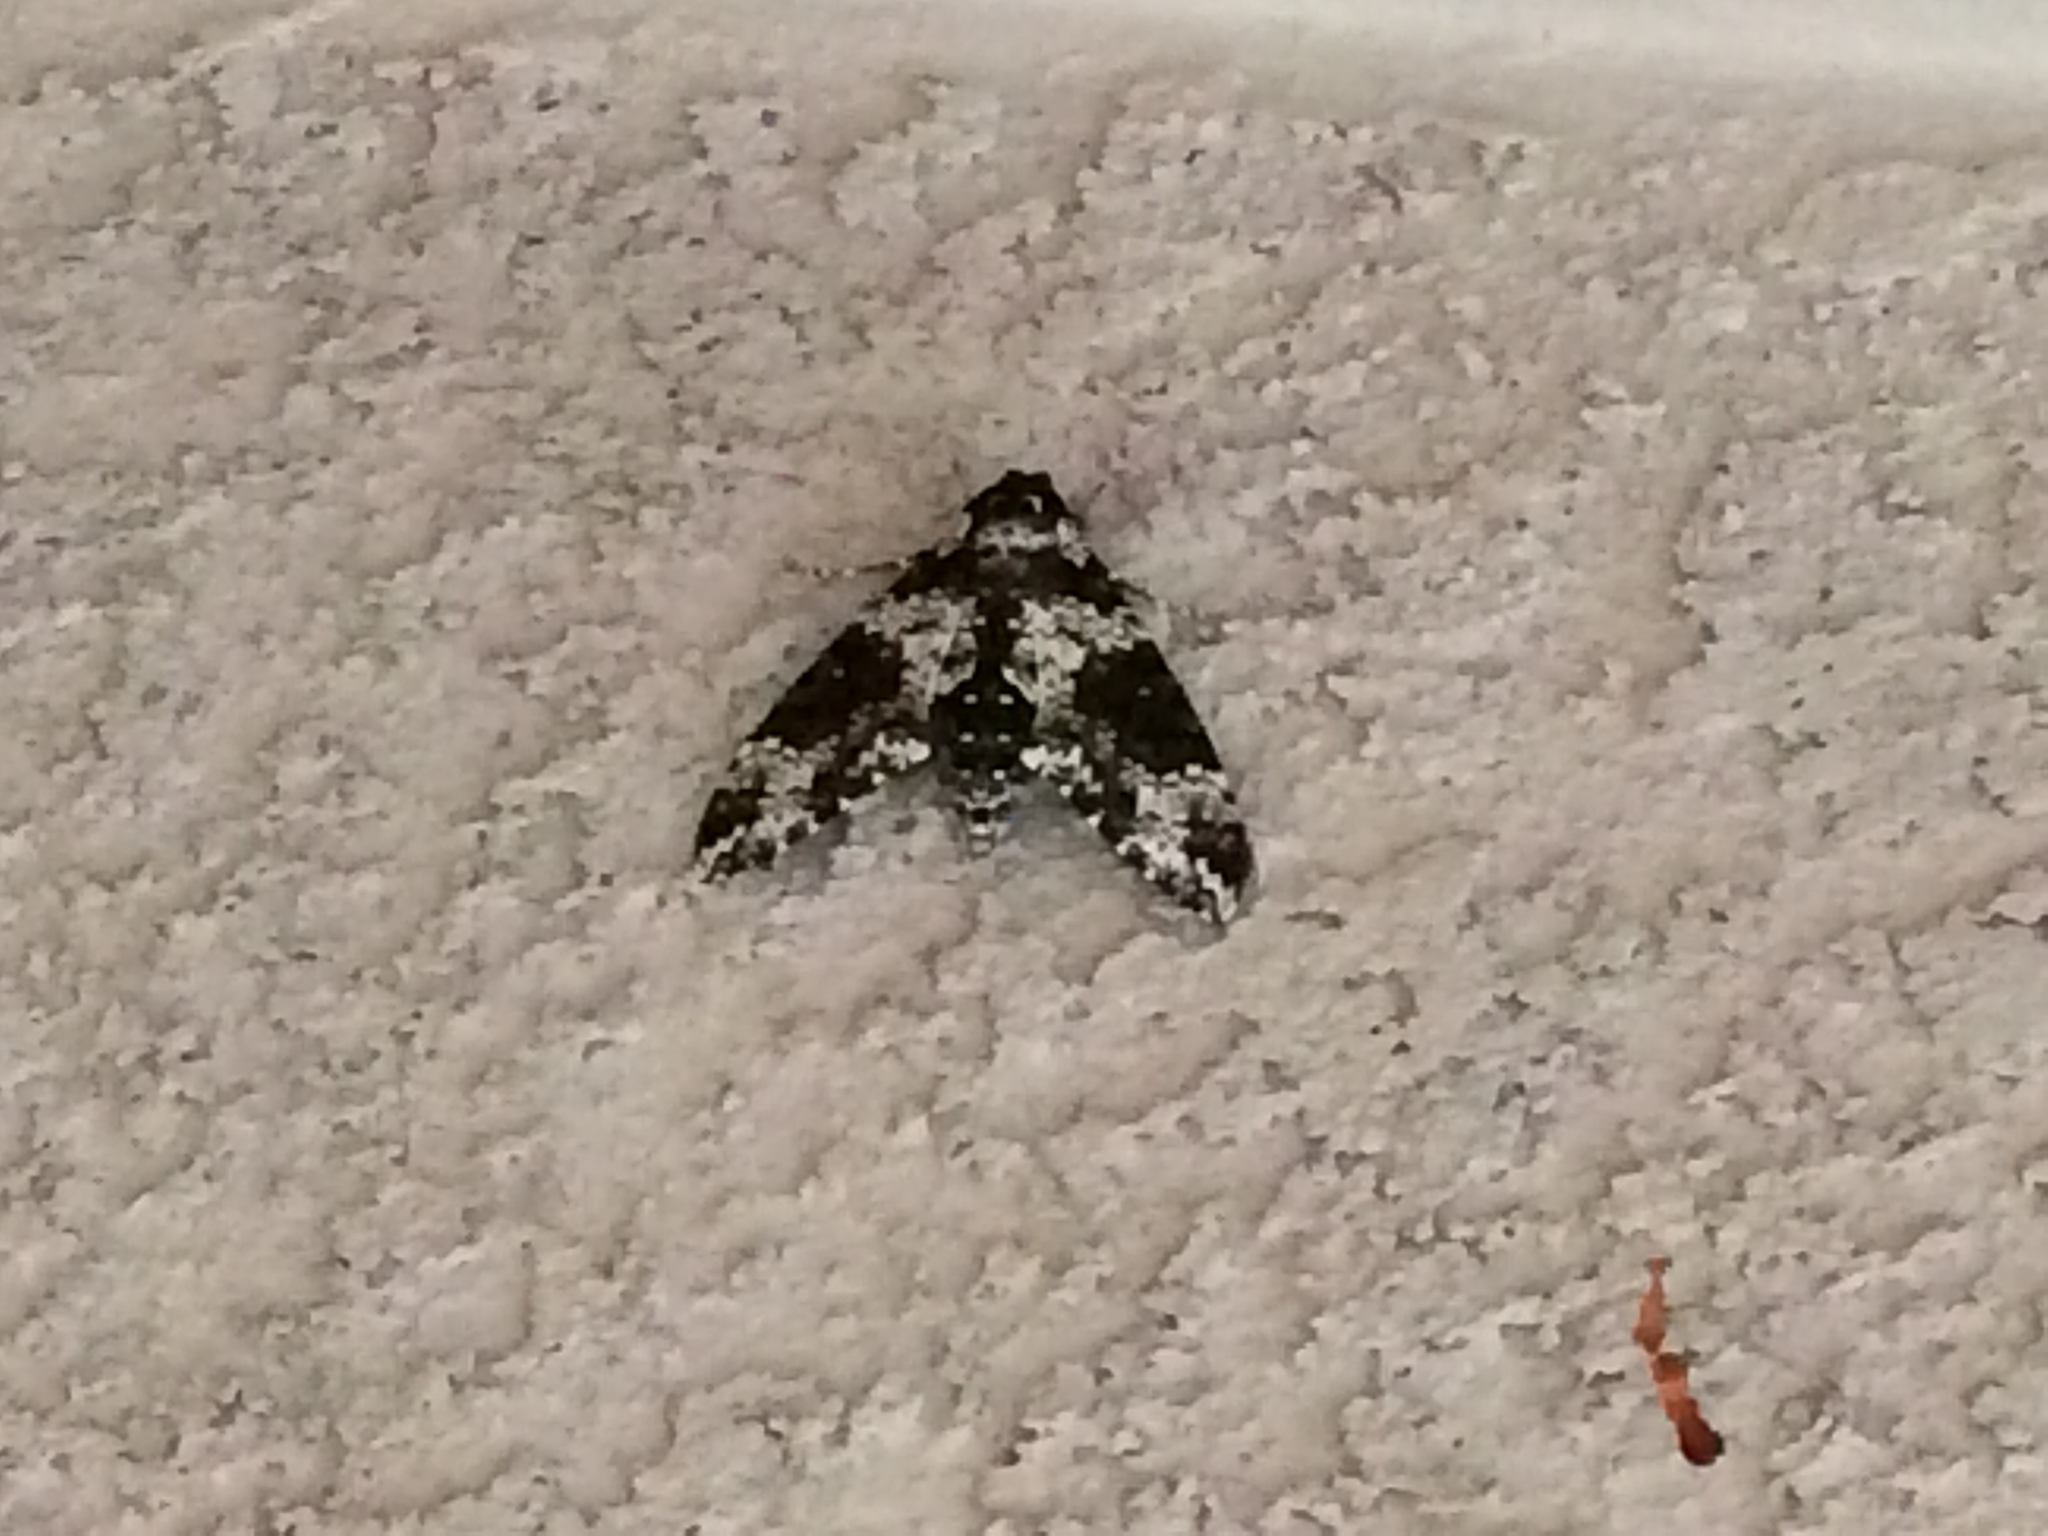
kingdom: Animalia
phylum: Arthropoda
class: Insecta
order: Lepidoptera
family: Sphingidae
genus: Manduca
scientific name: Manduca rustica
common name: Rustic sphinx
